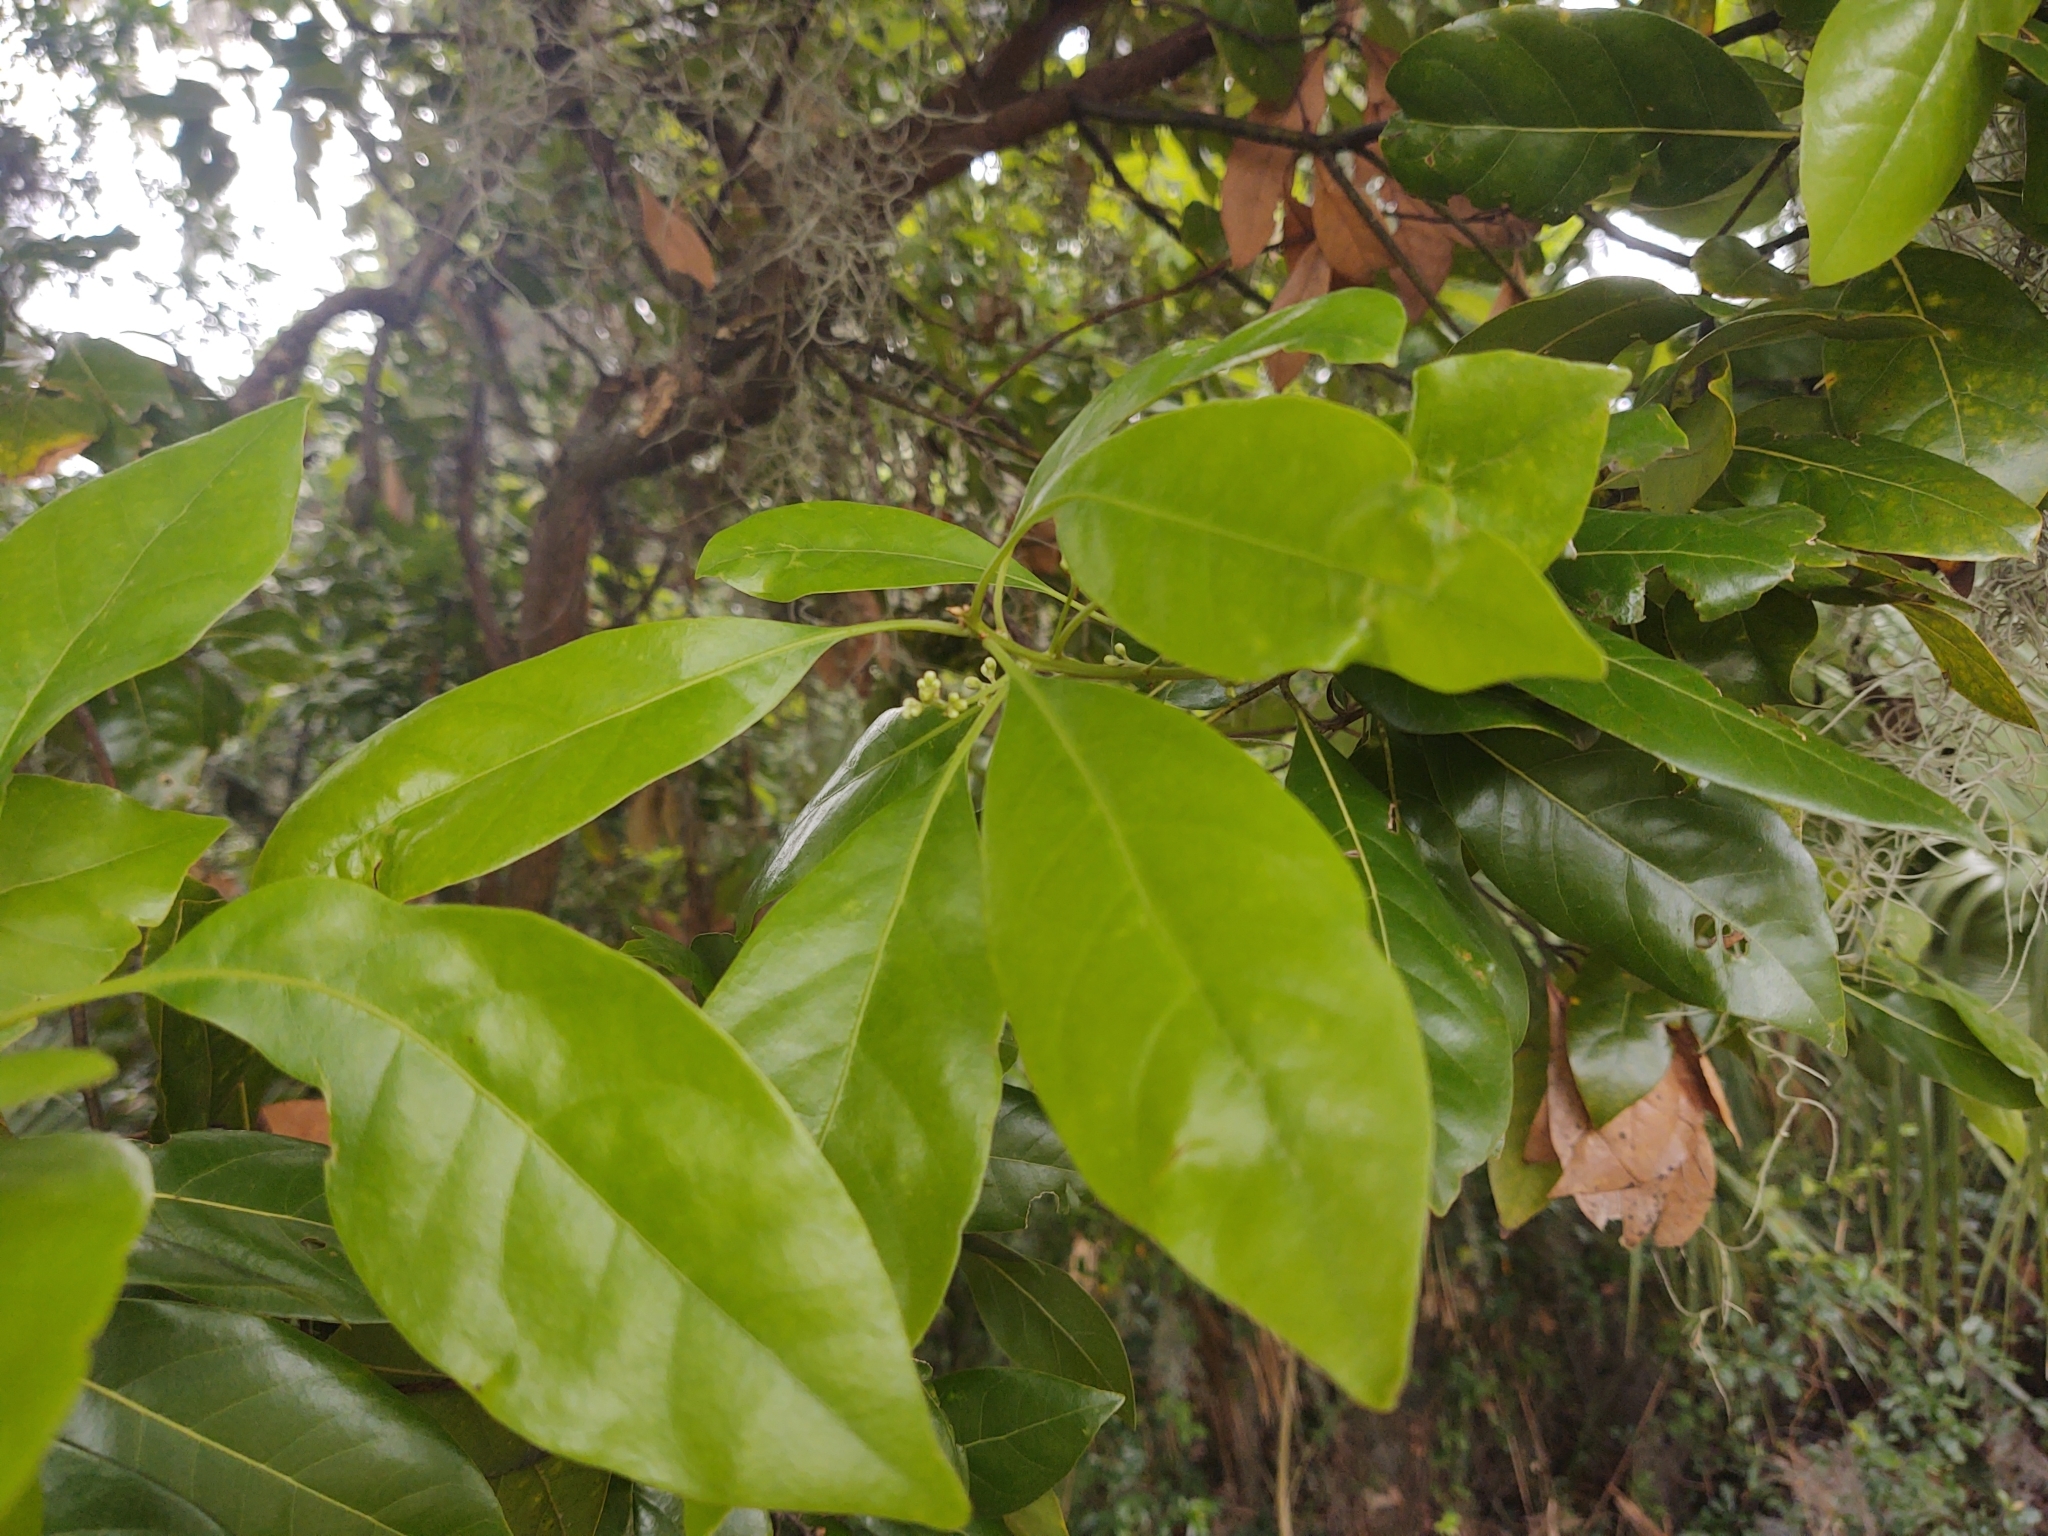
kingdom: Plantae
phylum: Tracheophyta
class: Magnoliopsida
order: Laurales
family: Lauraceae
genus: Persea
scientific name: Persea borbonia
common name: Redbay
